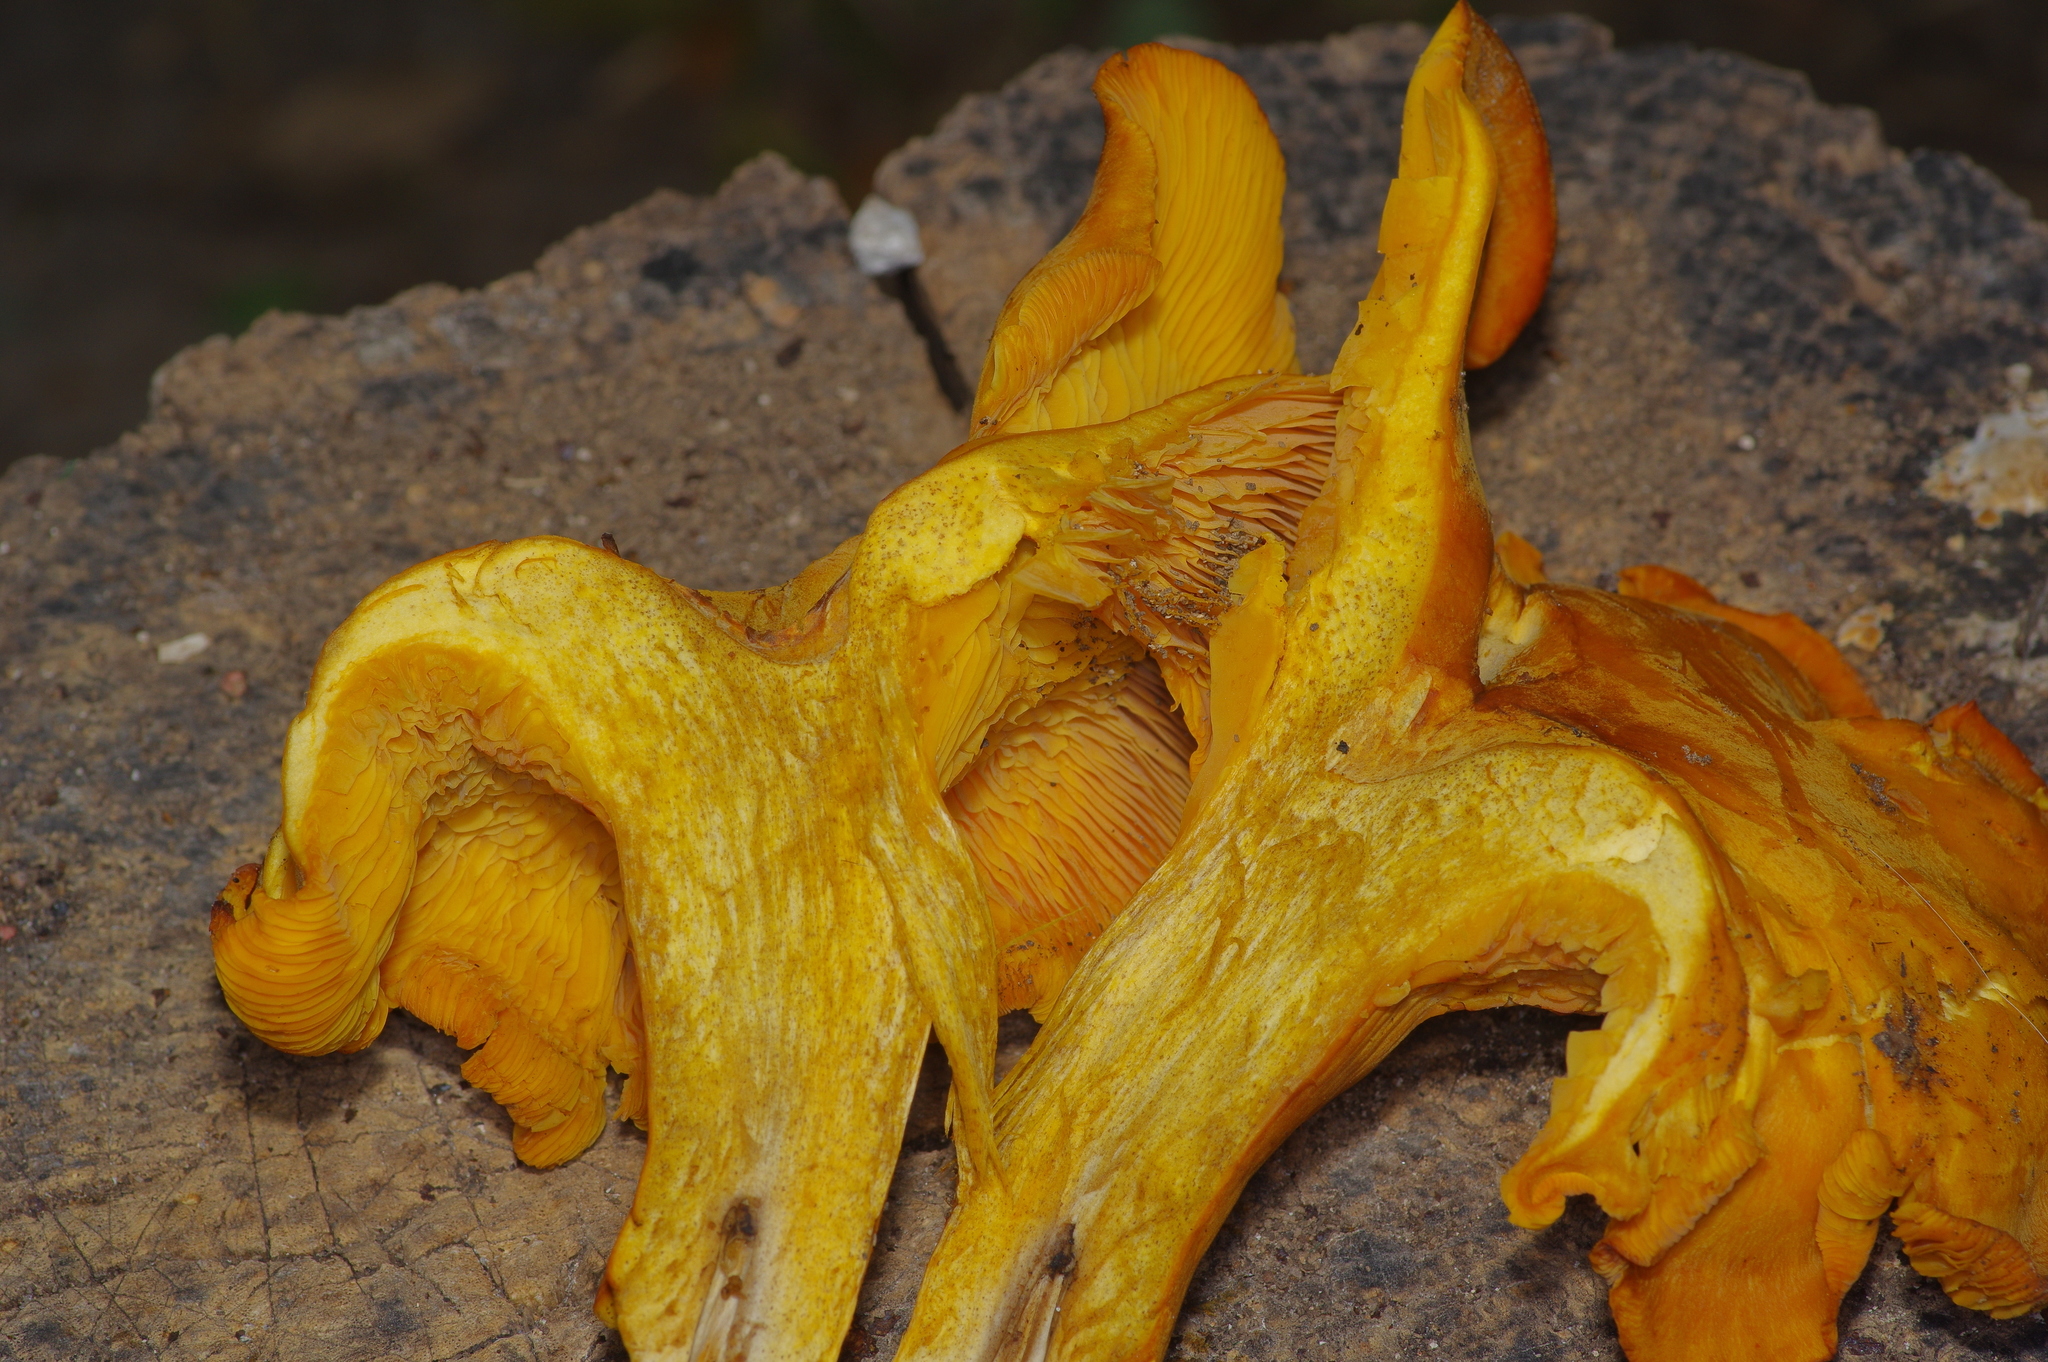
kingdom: Fungi
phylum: Basidiomycota
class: Agaricomycetes
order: Agaricales
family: Omphalotaceae
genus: Omphalotus
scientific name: Omphalotus subilludens
